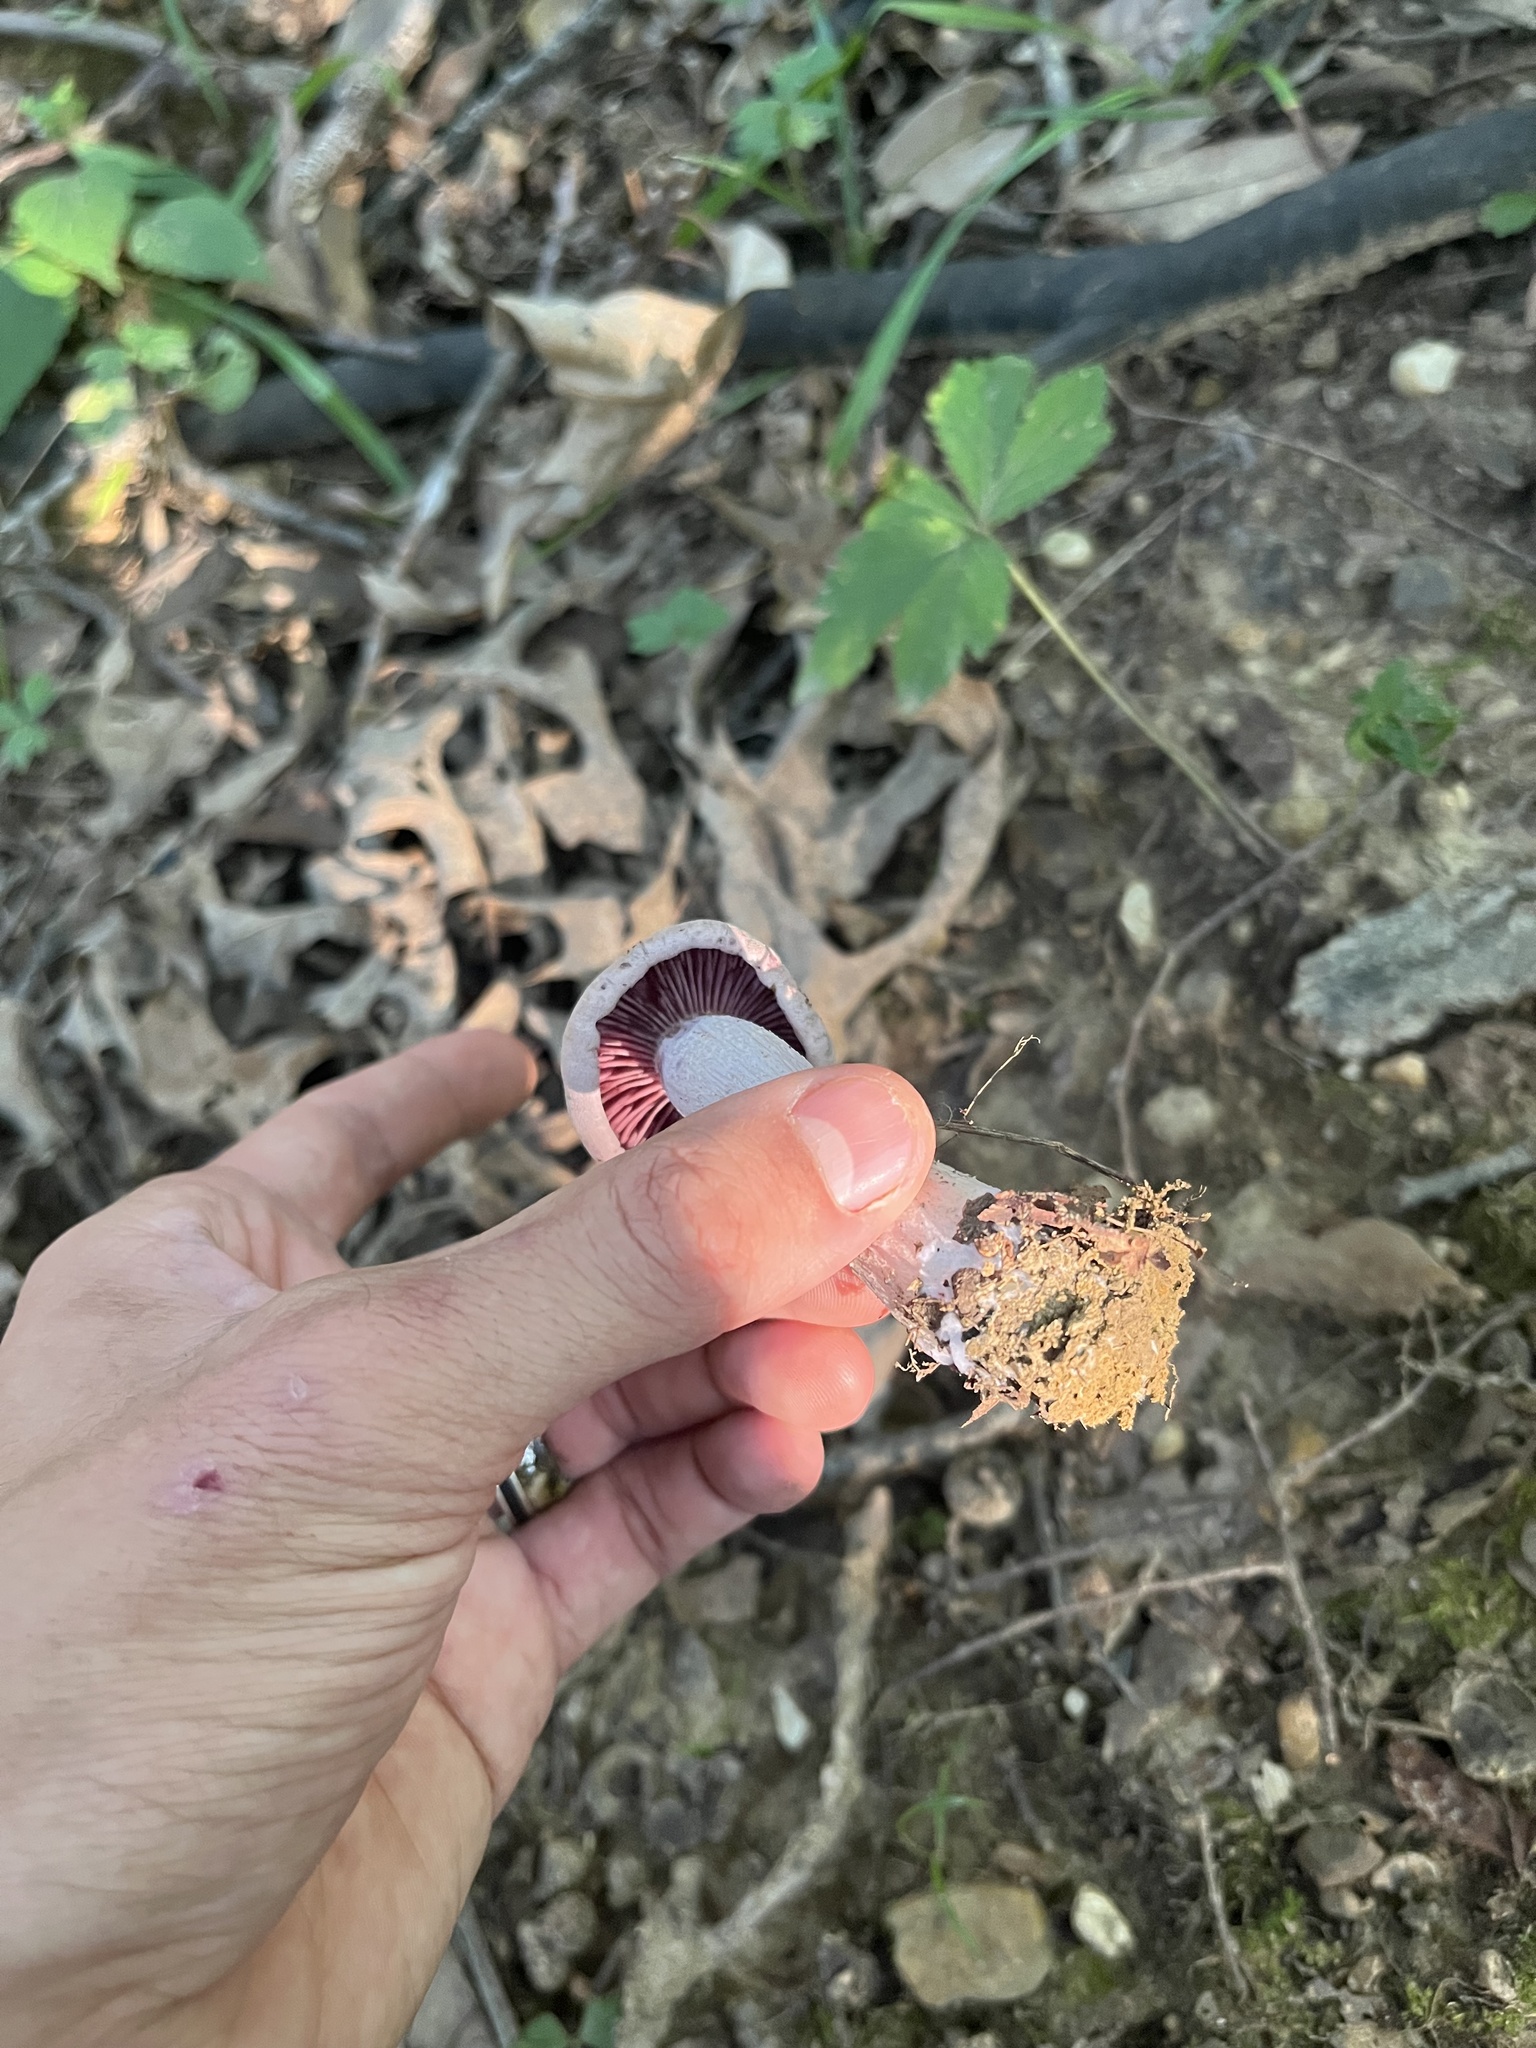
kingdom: Fungi
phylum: Basidiomycota
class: Agaricomycetes
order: Agaricales
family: Hydnangiaceae
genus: Laccaria
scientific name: Laccaria ochropurpurea
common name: Purple laccaria
